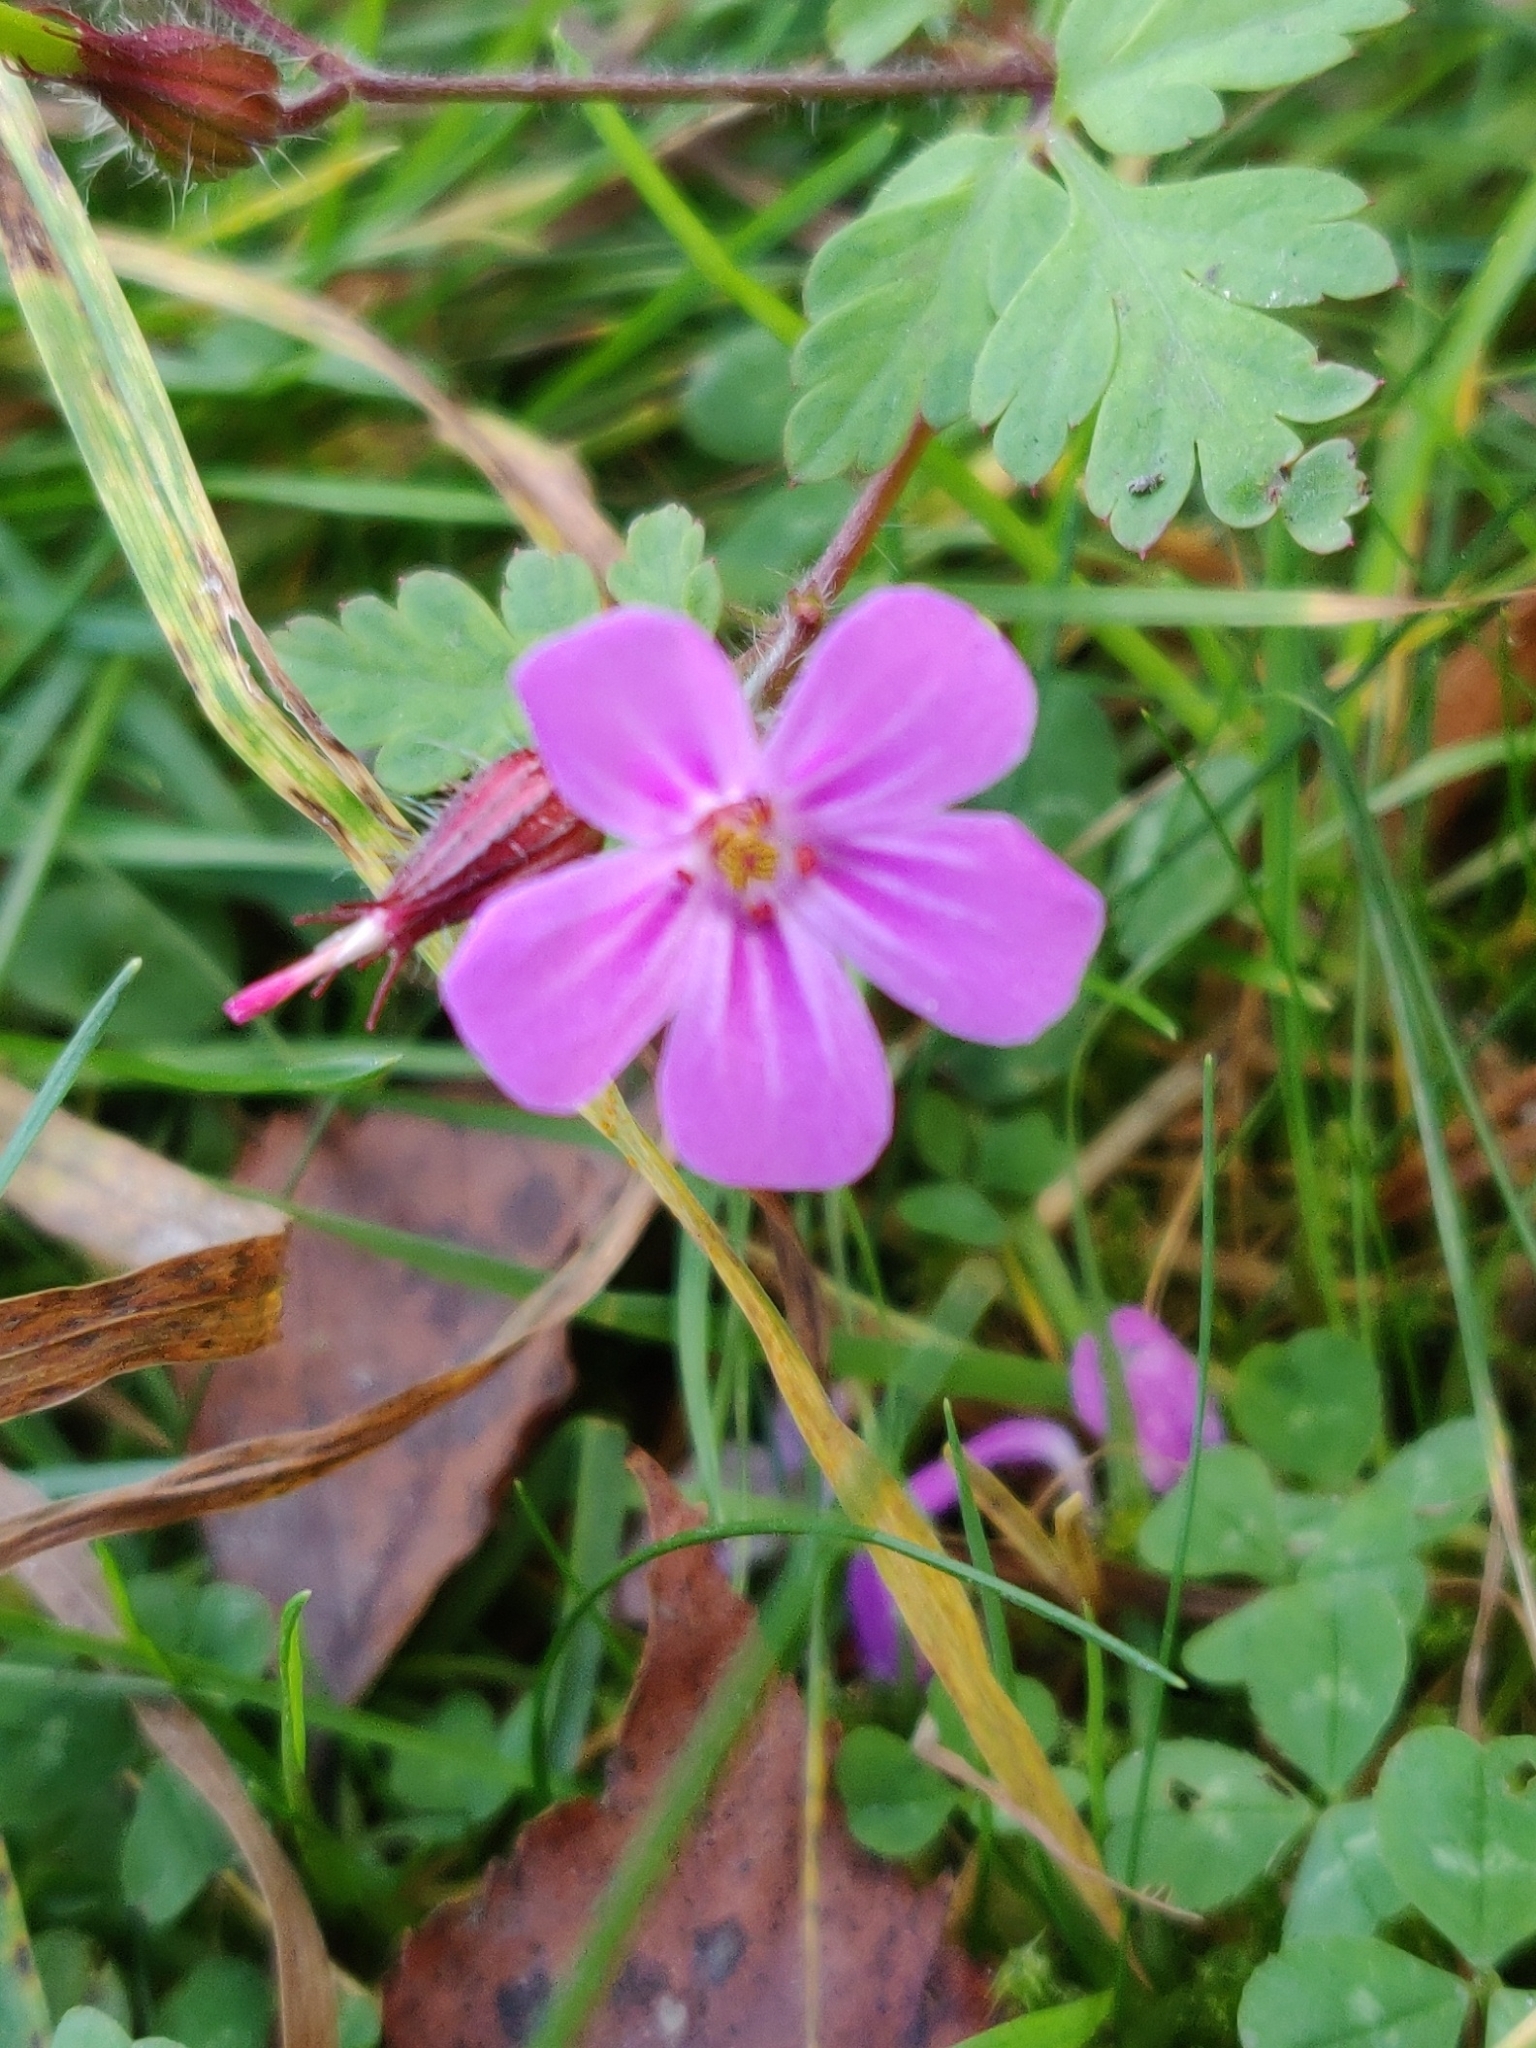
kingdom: Plantae
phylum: Tracheophyta
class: Magnoliopsida
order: Geraniales
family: Geraniaceae
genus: Geranium
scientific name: Geranium robertianum
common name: Herb-robert
